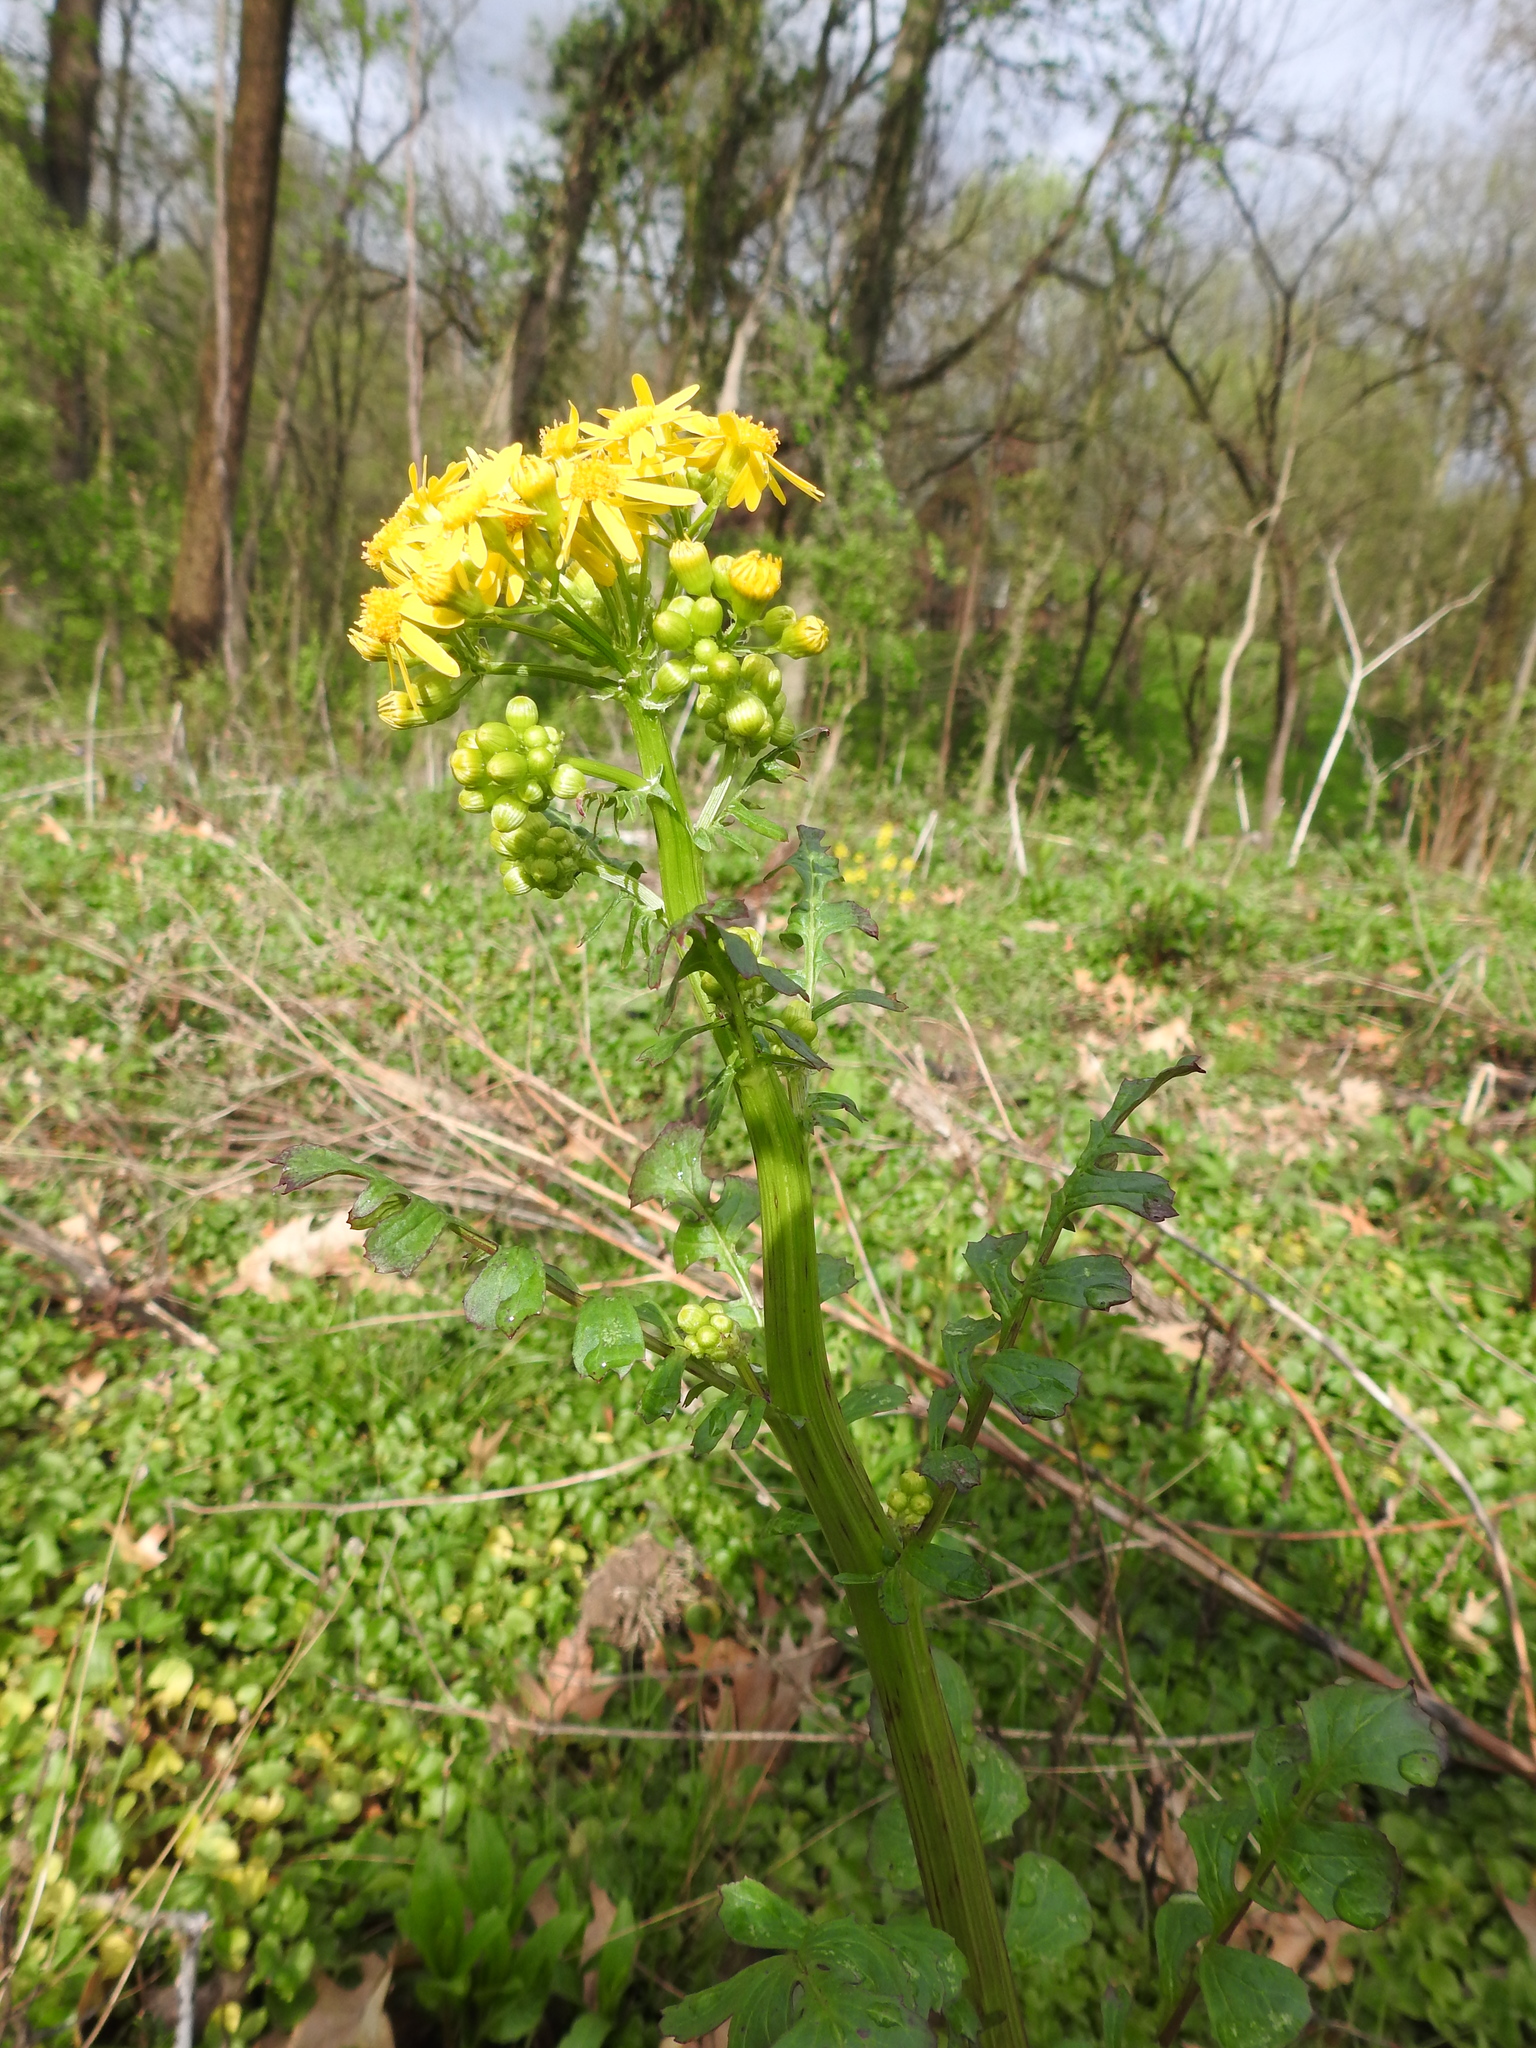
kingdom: Plantae
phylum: Tracheophyta
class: Magnoliopsida
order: Asterales
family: Asteraceae
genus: Packera
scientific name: Packera glabella
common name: Butterweed
